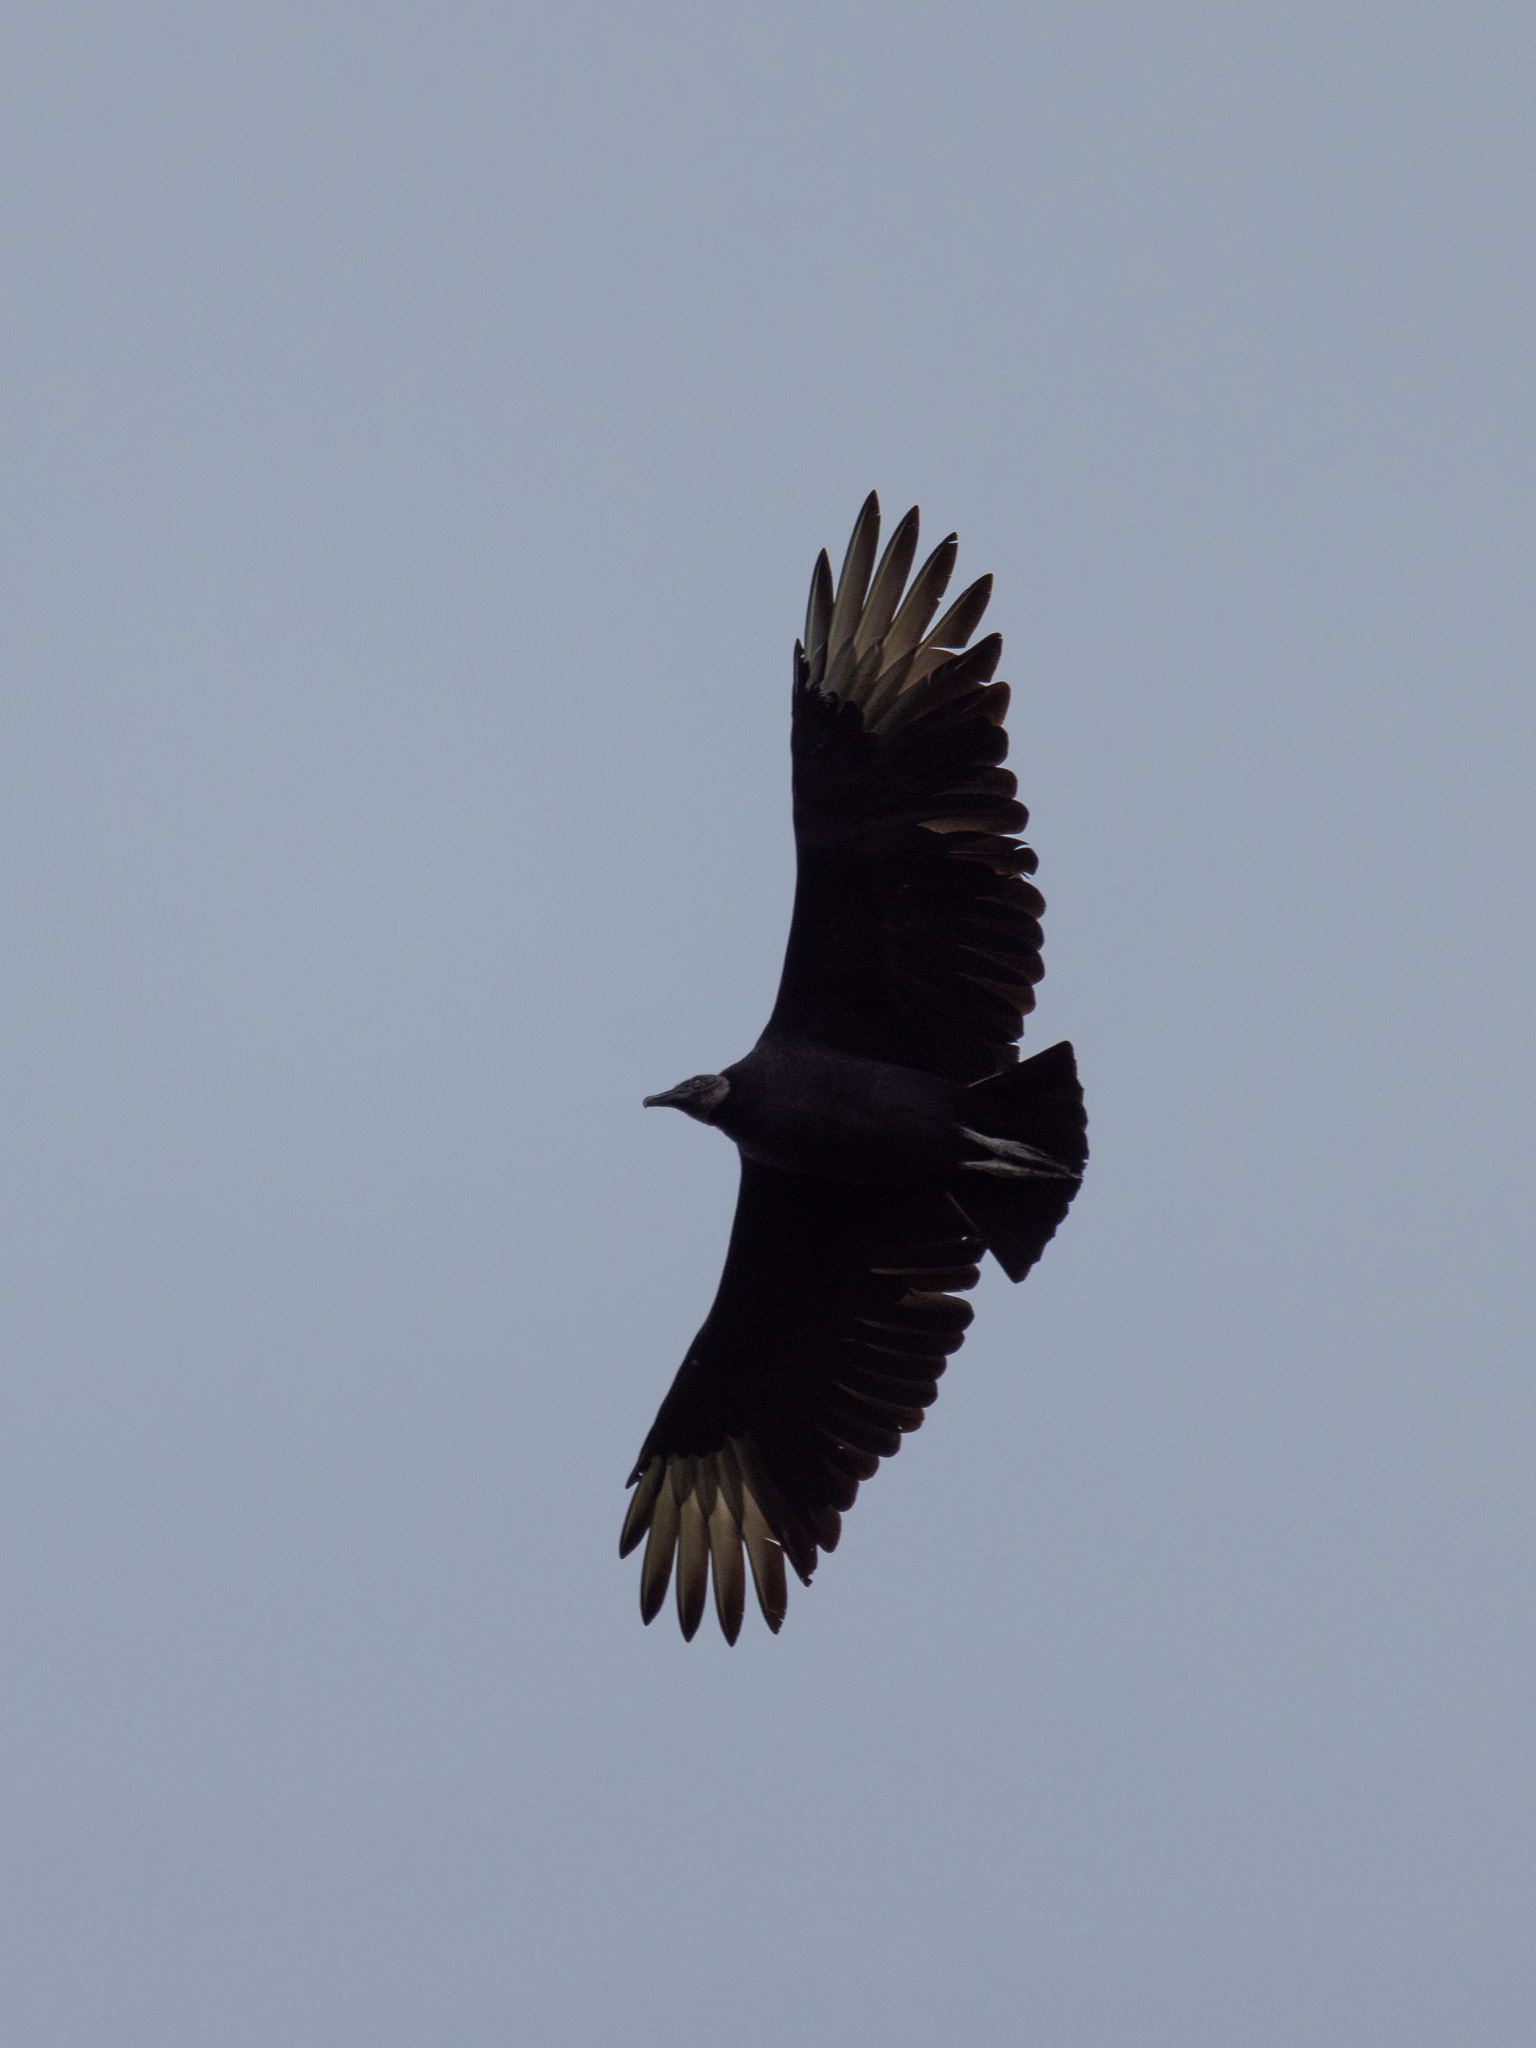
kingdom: Animalia
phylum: Chordata
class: Aves
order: Accipitriformes
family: Cathartidae
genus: Coragyps
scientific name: Coragyps atratus
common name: Black vulture
